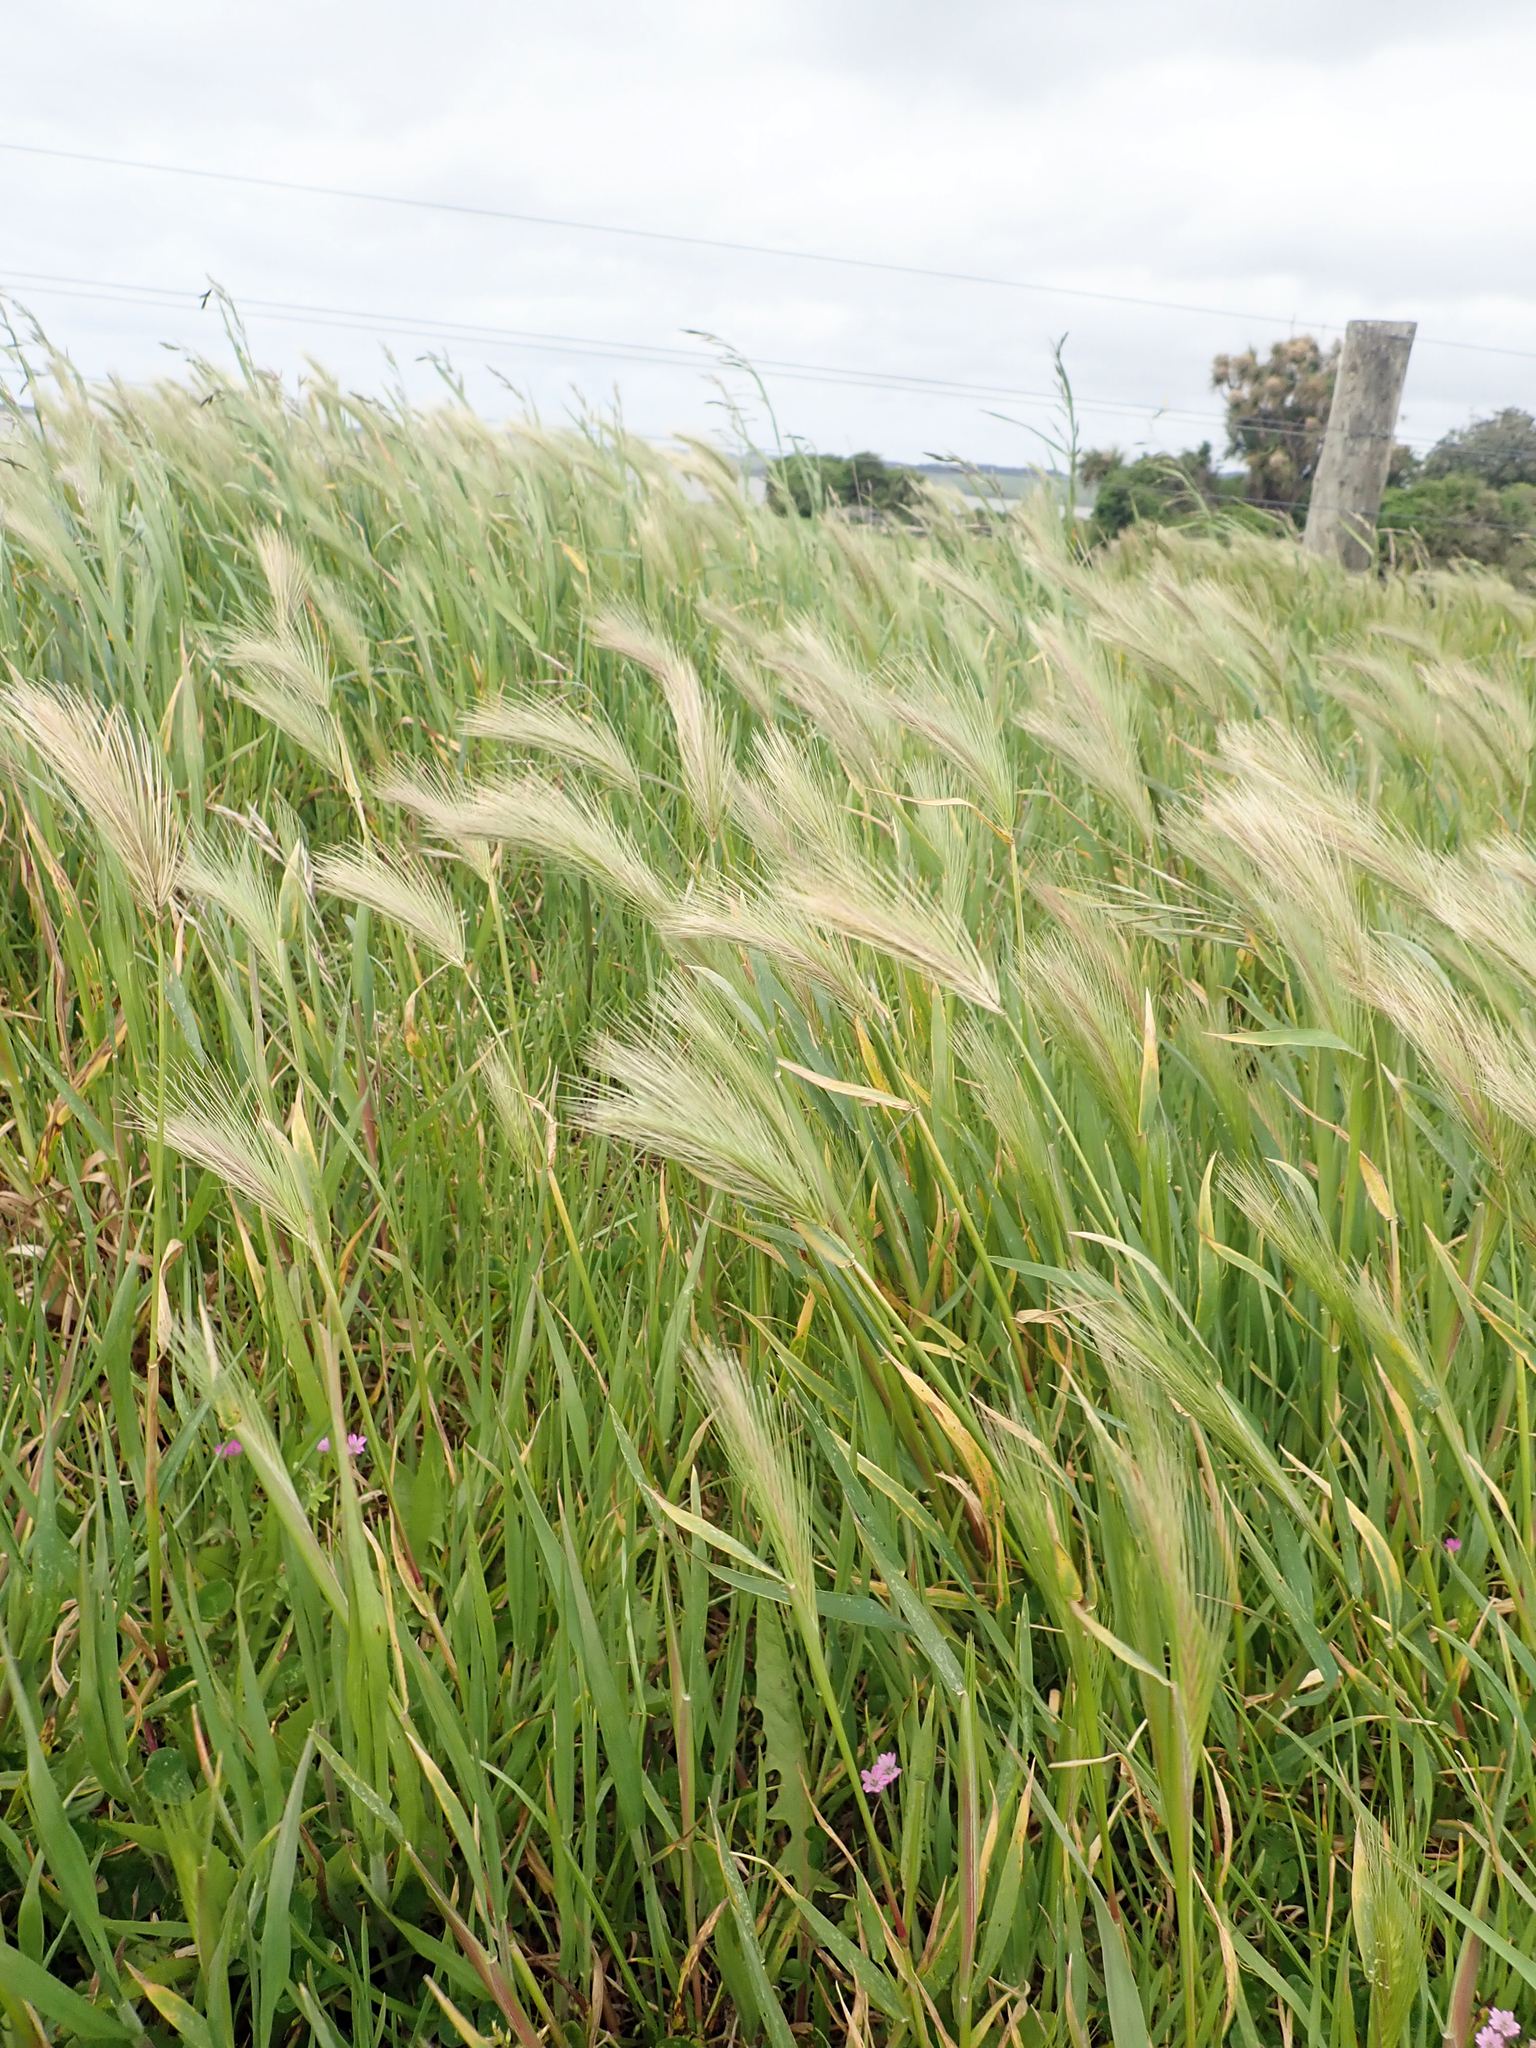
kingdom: Plantae
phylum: Tracheophyta
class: Liliopsida
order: Poales
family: Poaceae
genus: Hordeum
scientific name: Hordeum murinum
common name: Wall barley
